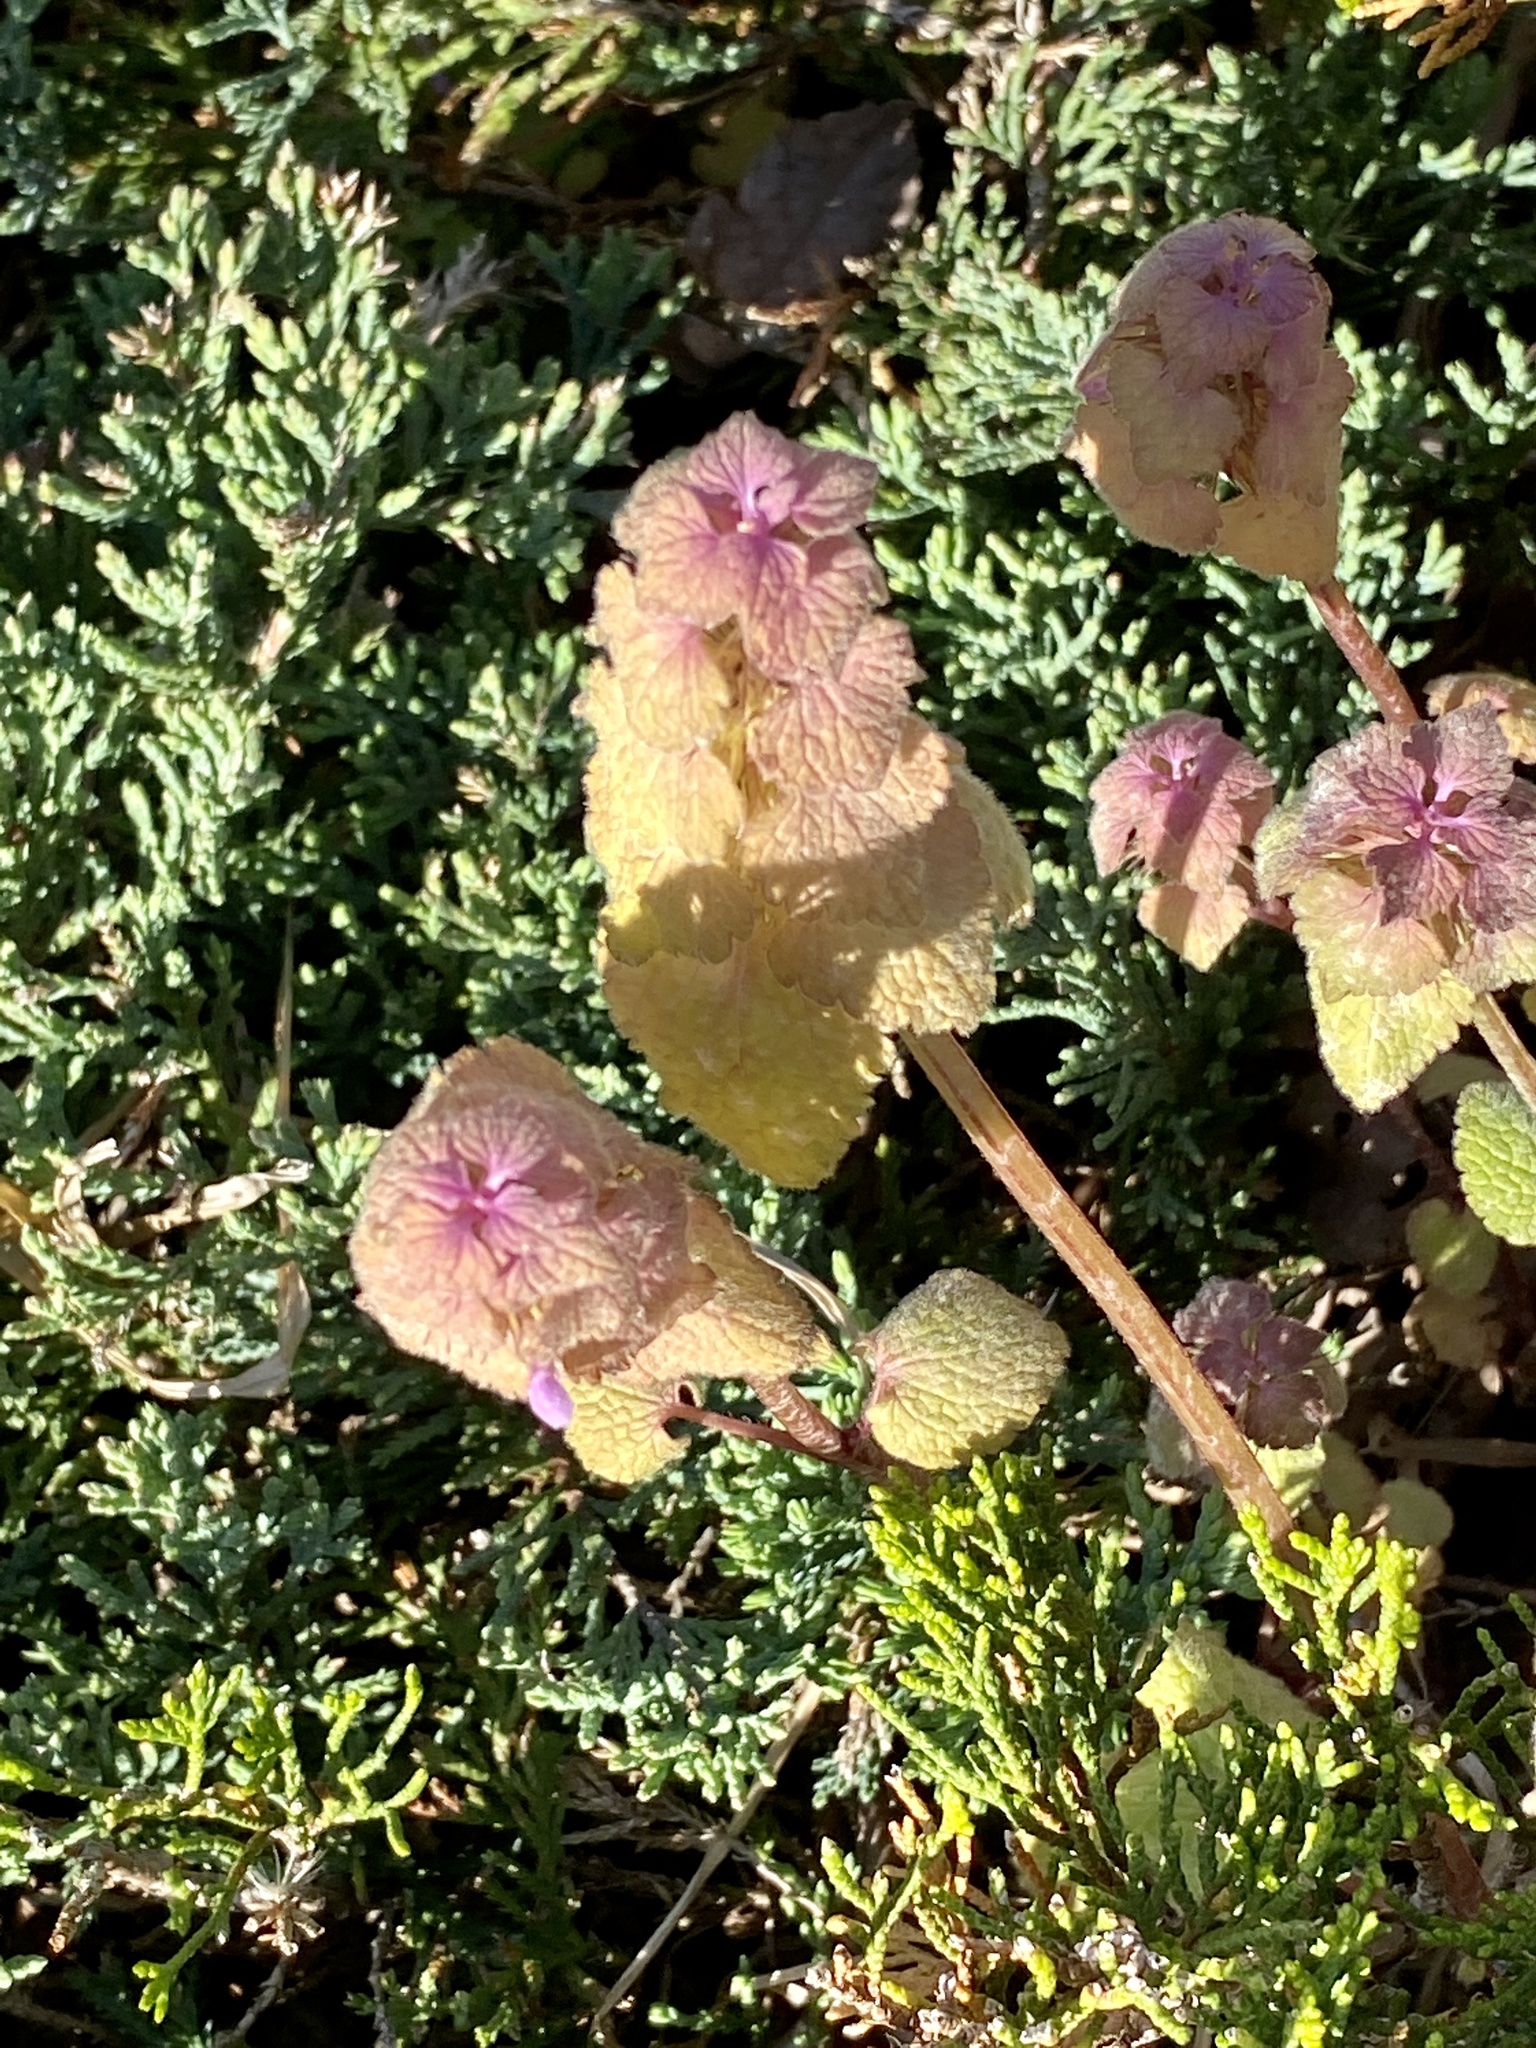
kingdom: Plantae
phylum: Tracheophyta
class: Magnoliopsida
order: Lamiales
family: Lamiaceae
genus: Lamium
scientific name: Lamium purpureum
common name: Red dead-nettle
